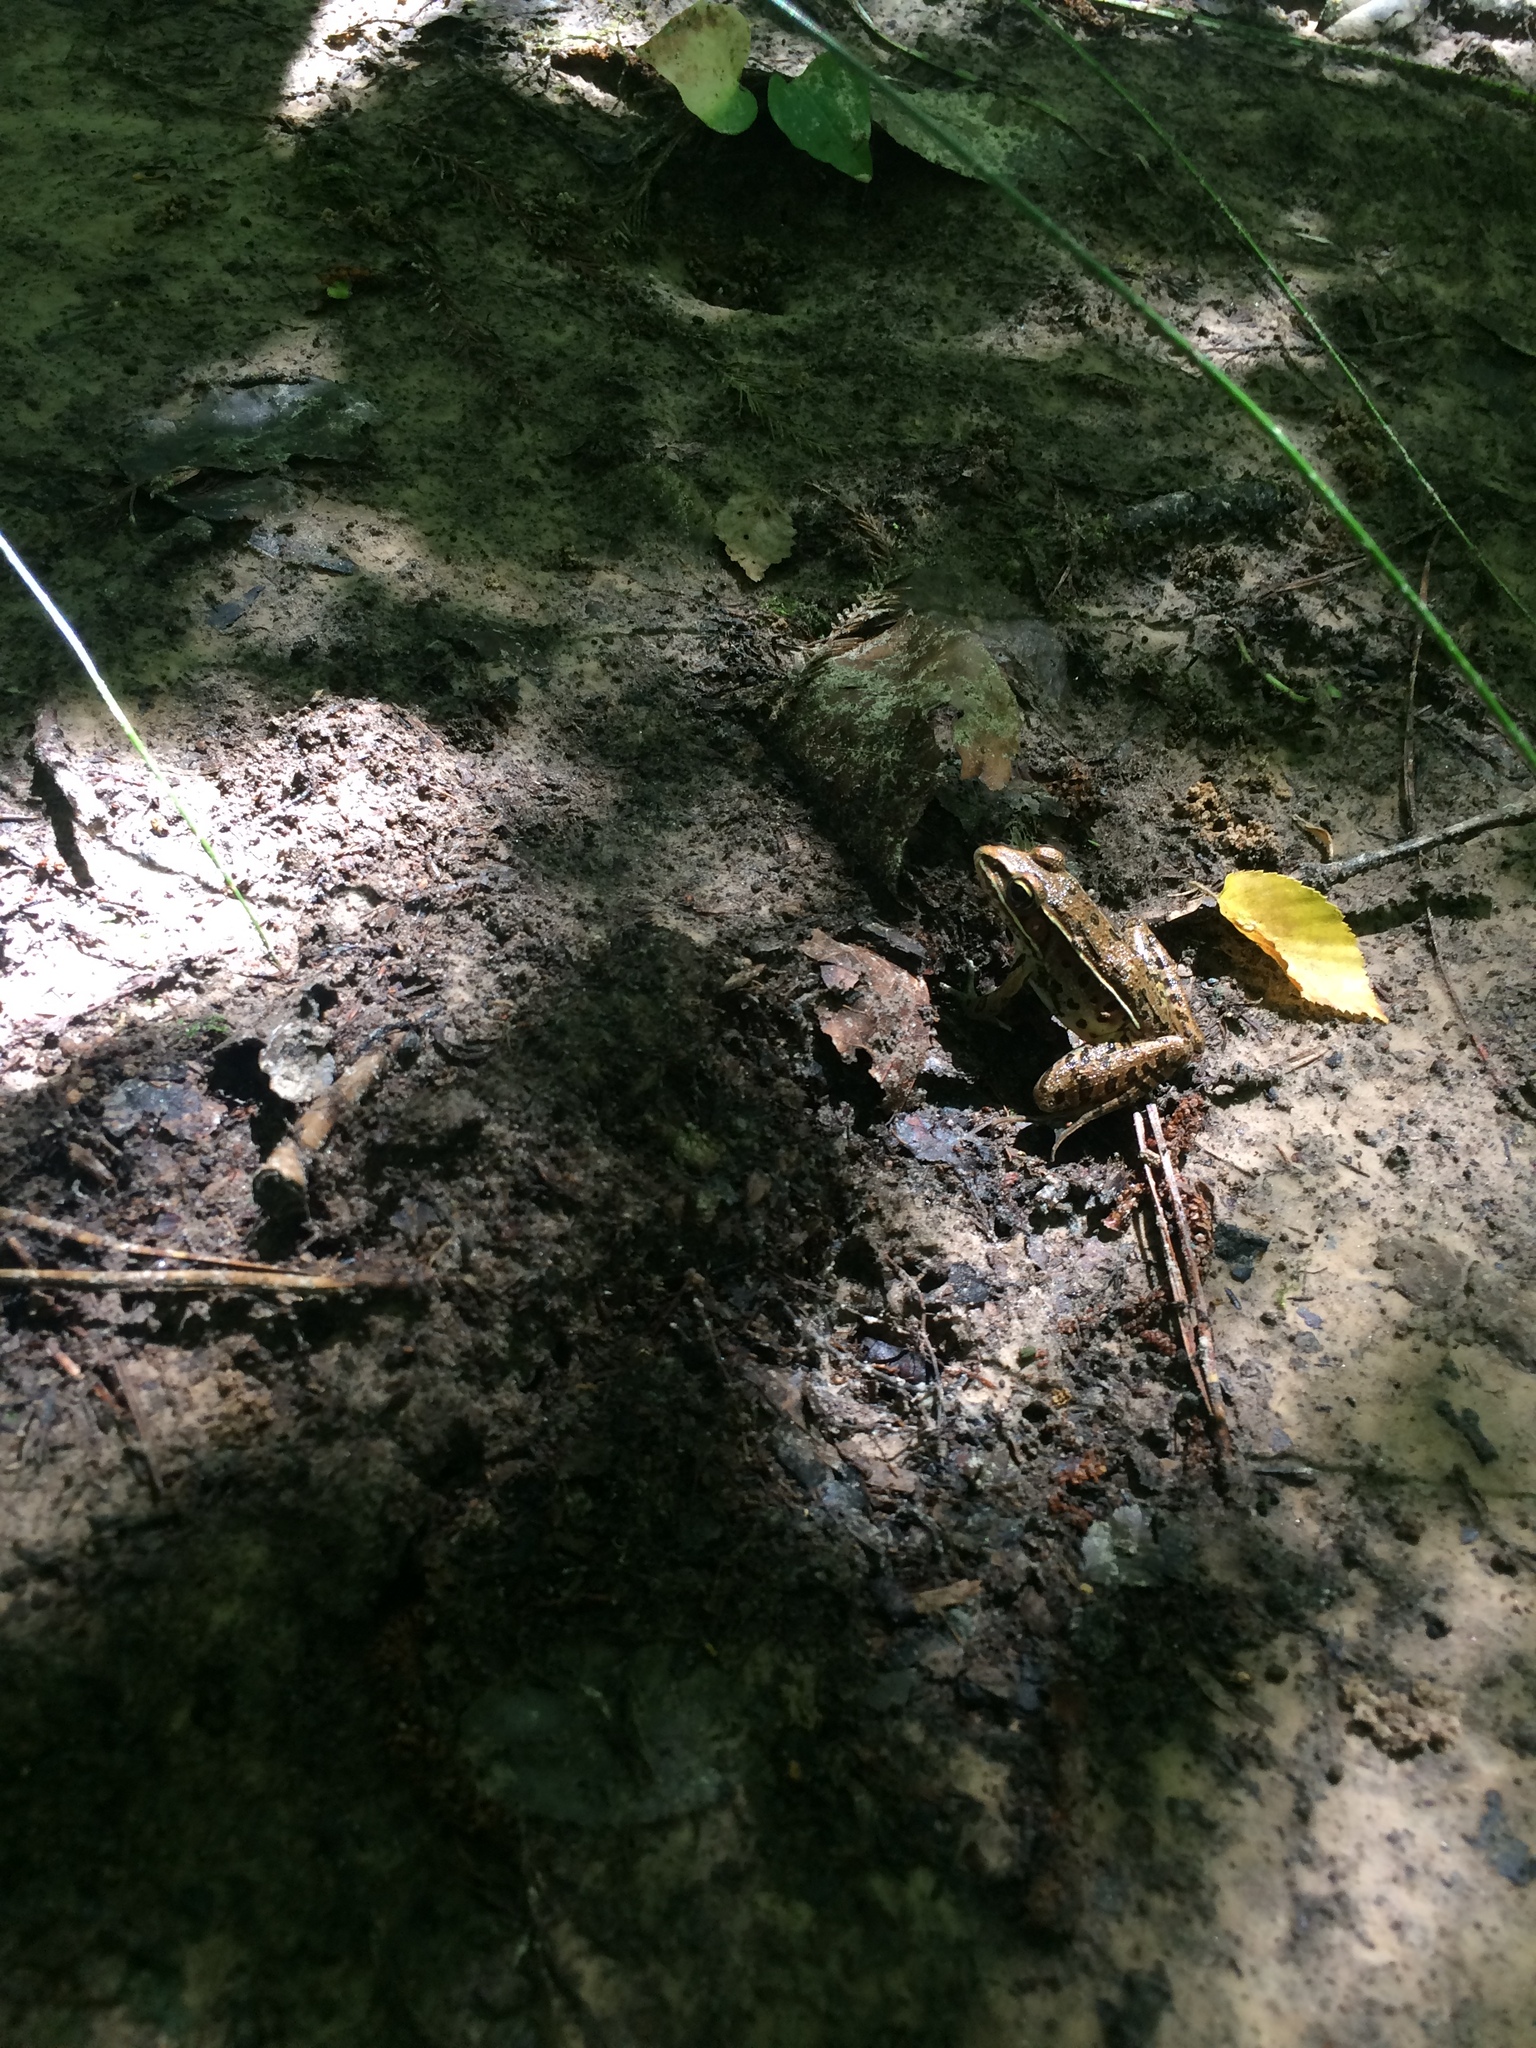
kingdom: Animalia
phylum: Chordata
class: Amphibia
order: Anura
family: Ranidae
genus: Lithobates
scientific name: Lithobates sphenocephalus
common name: Southern leopard frog
